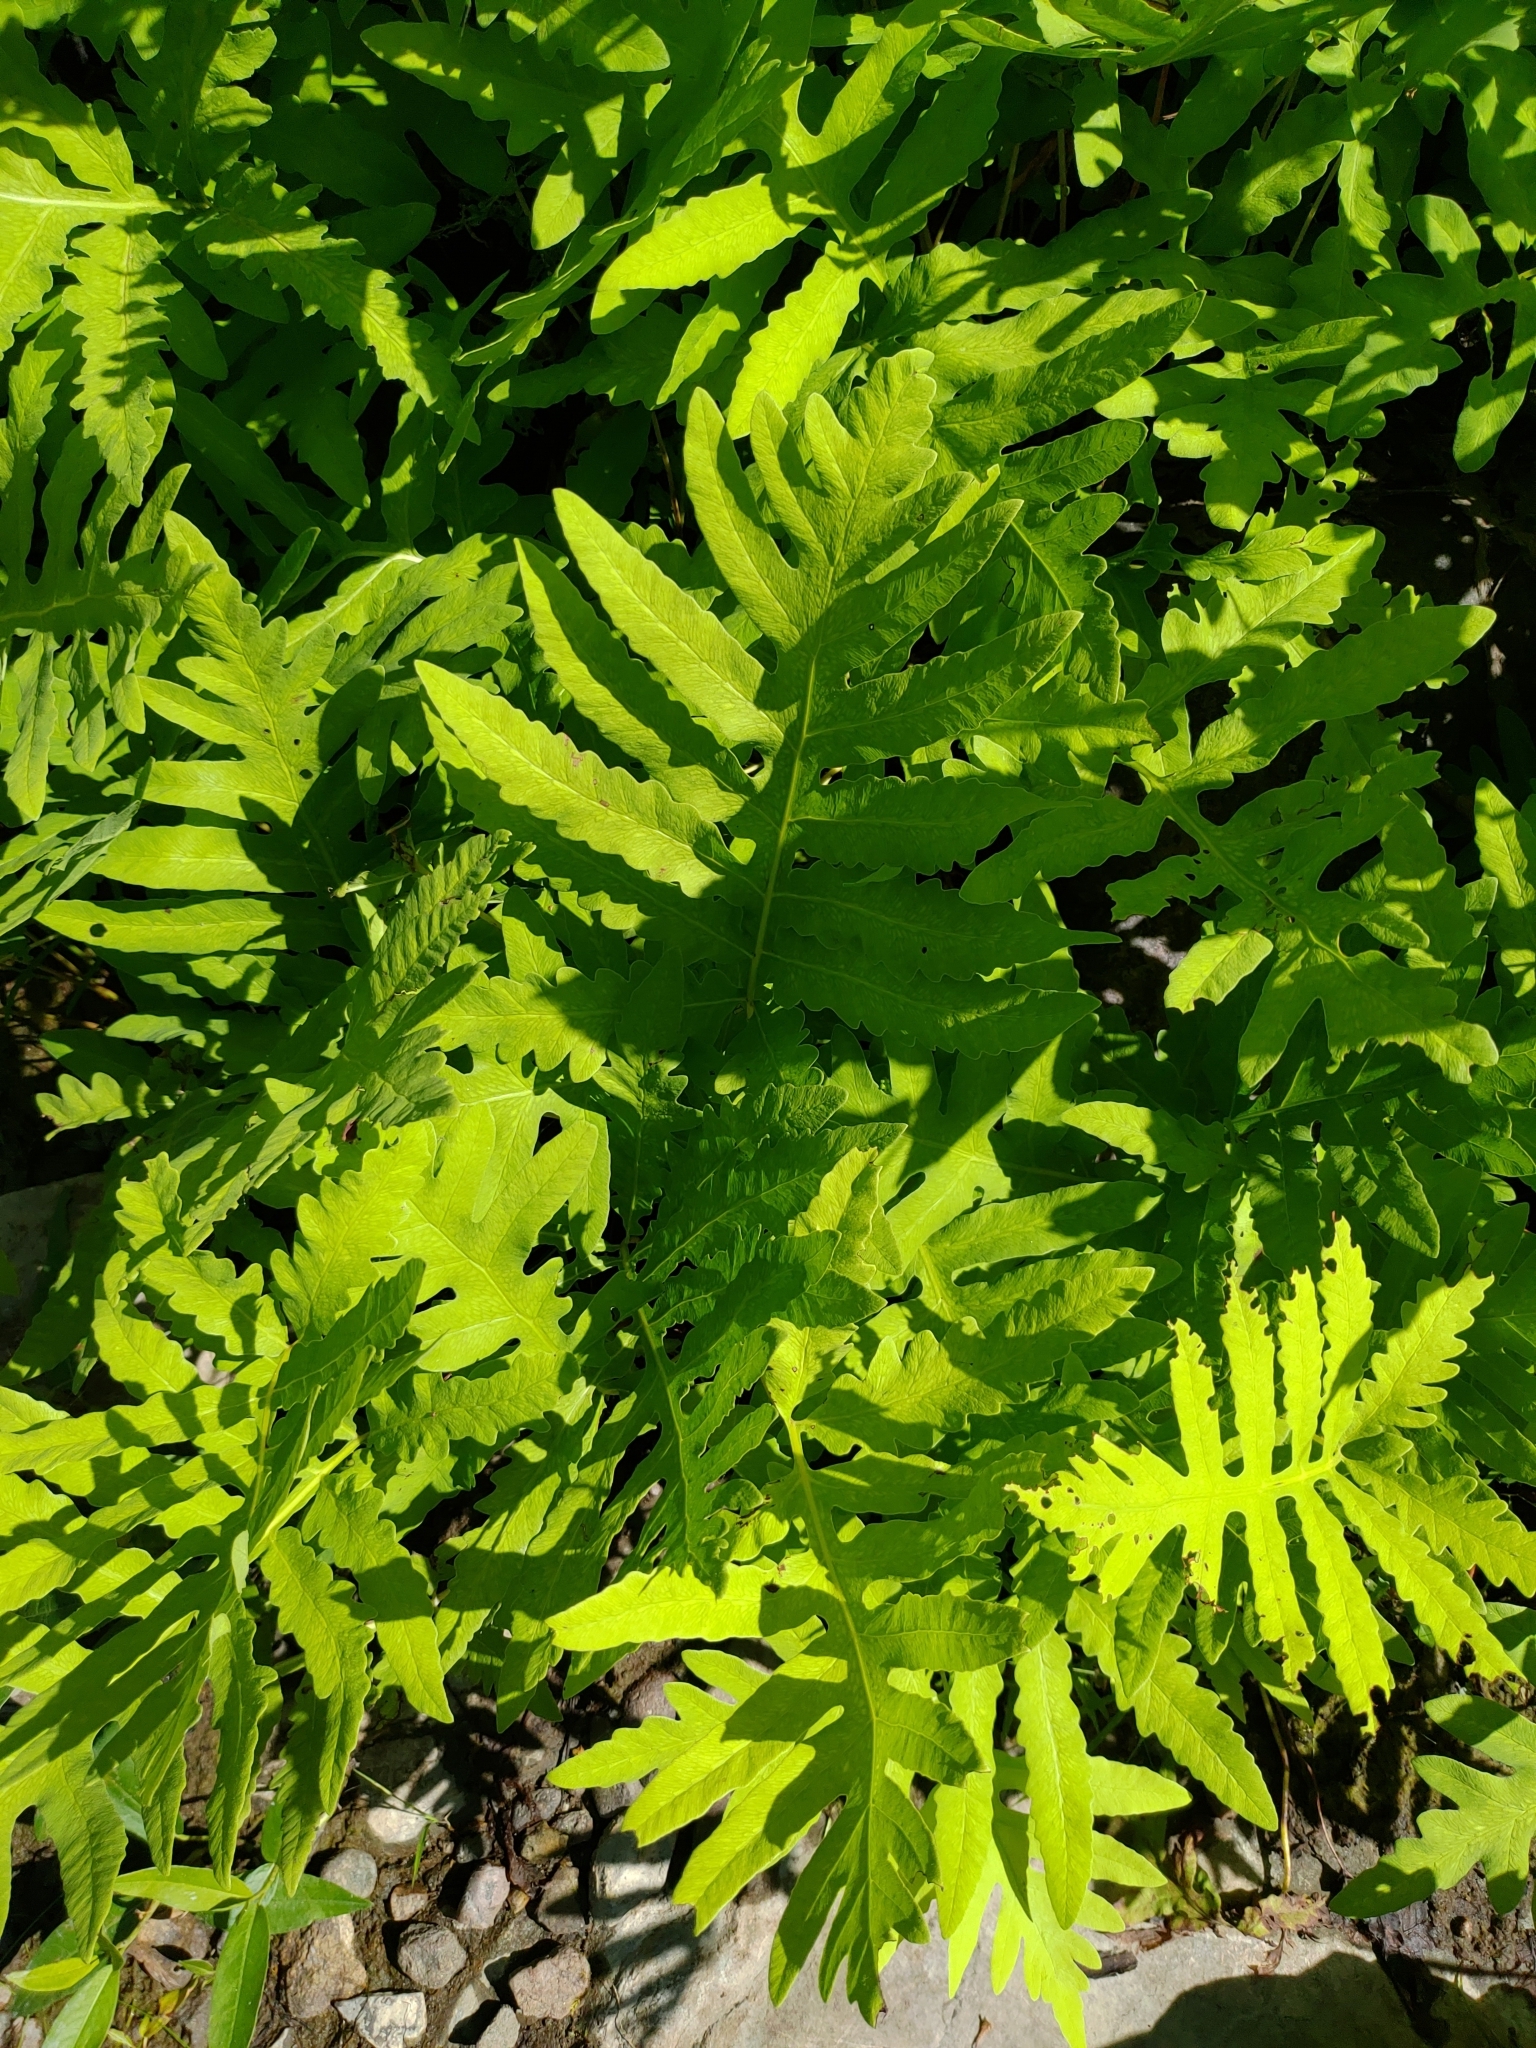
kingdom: Plantae
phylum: Tracheophyta
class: Polypodiopsida
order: Polypodiales
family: Onocleaceae
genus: Onoclea
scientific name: Onoclea sensibilis
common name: Sensitive fern
